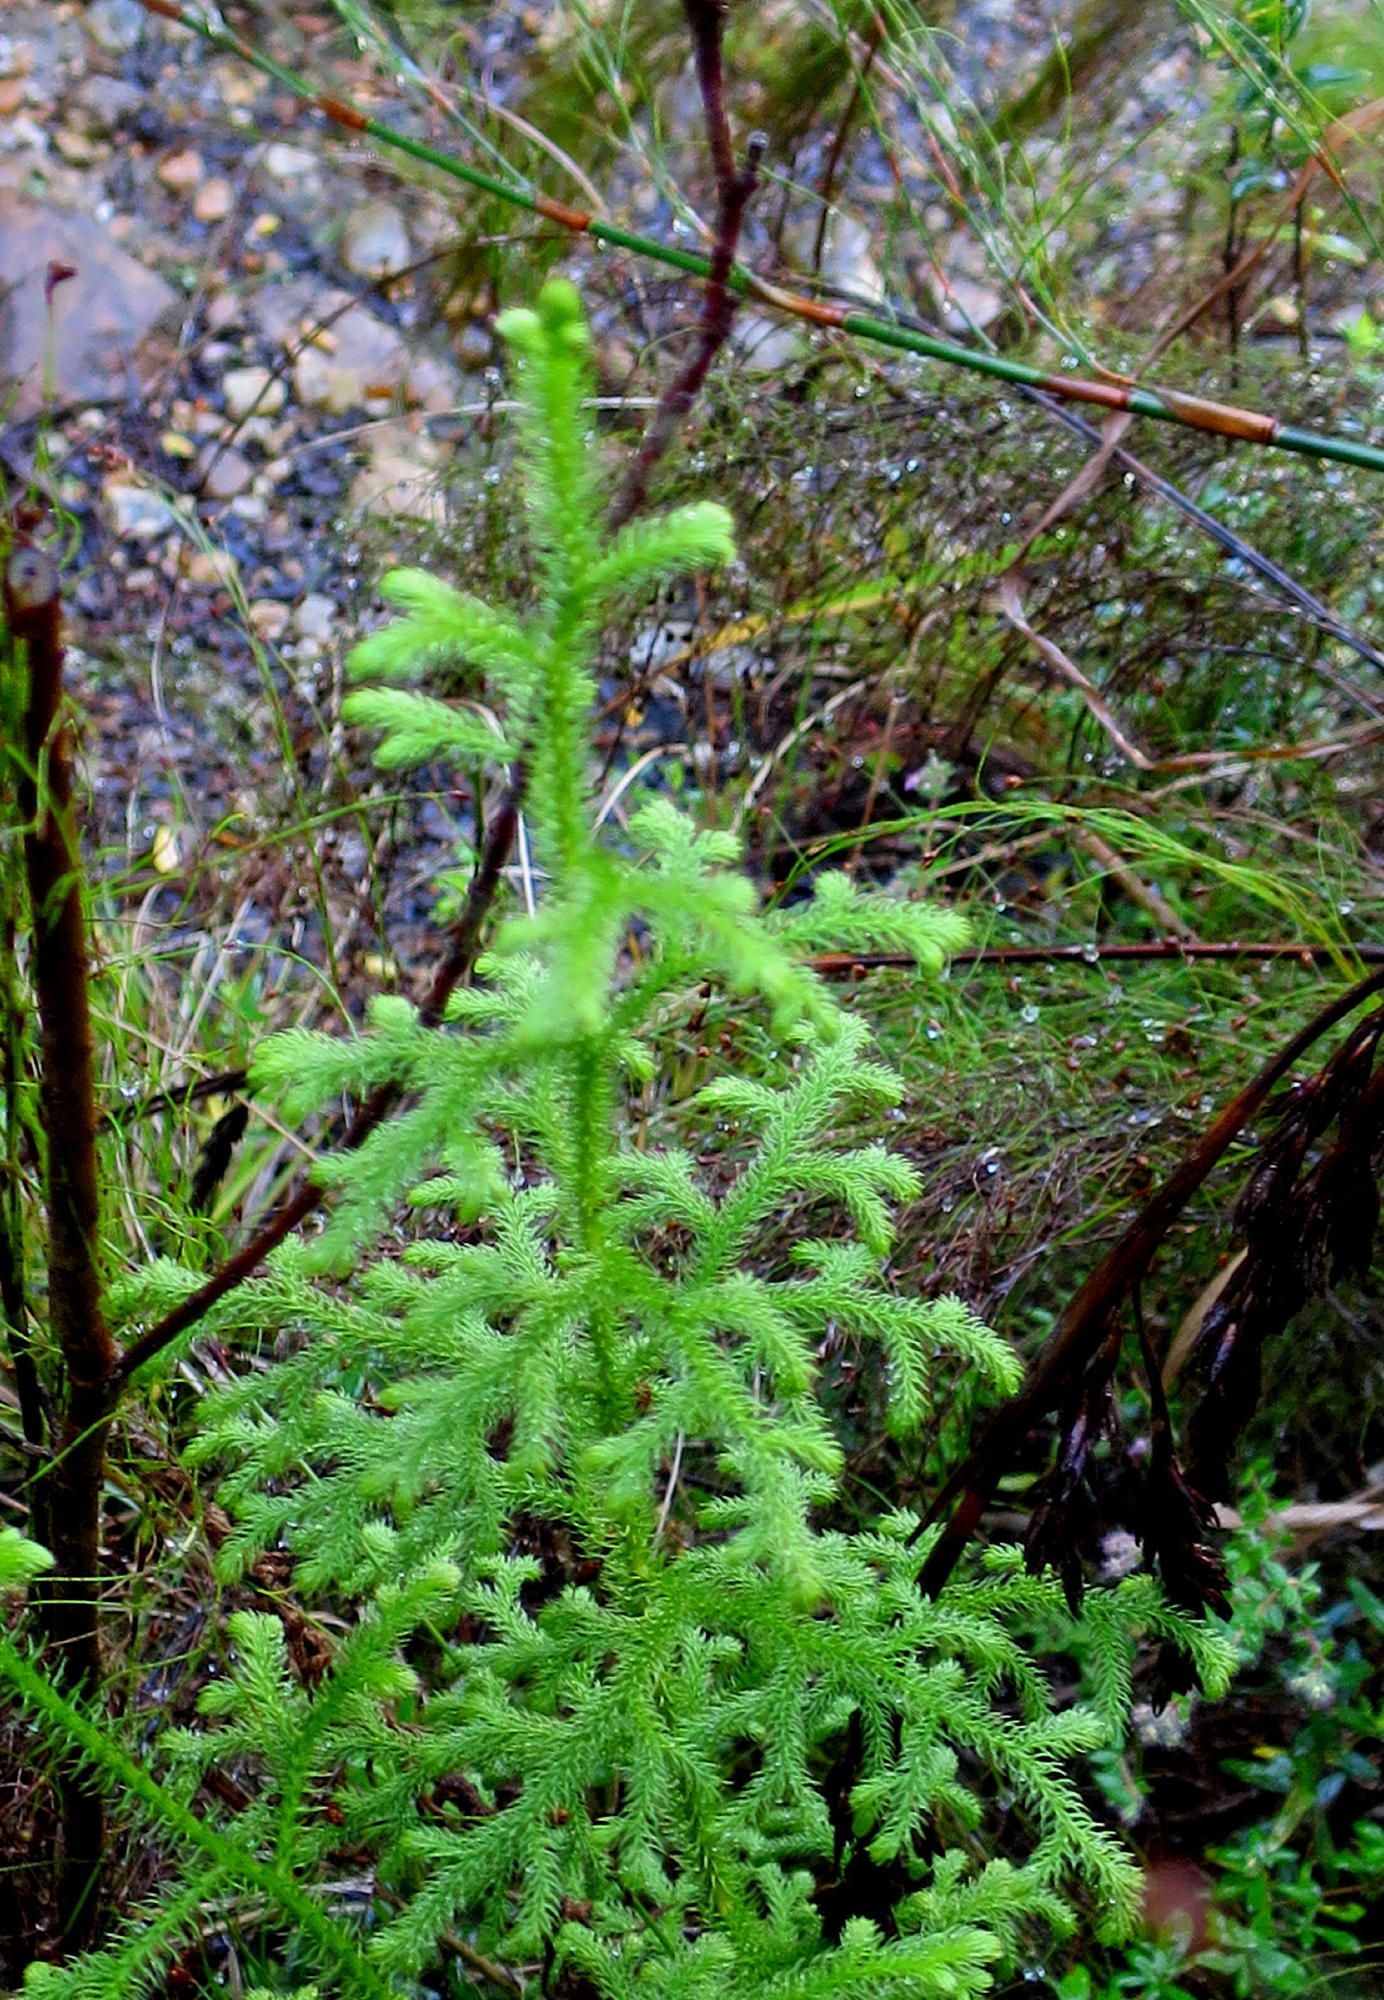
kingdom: Plantae
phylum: Tracheophyta
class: Lycopodiopsida
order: Lycopodiales
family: Lycopodiaceae
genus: Palhinhaea
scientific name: Palhinhaea cernua
